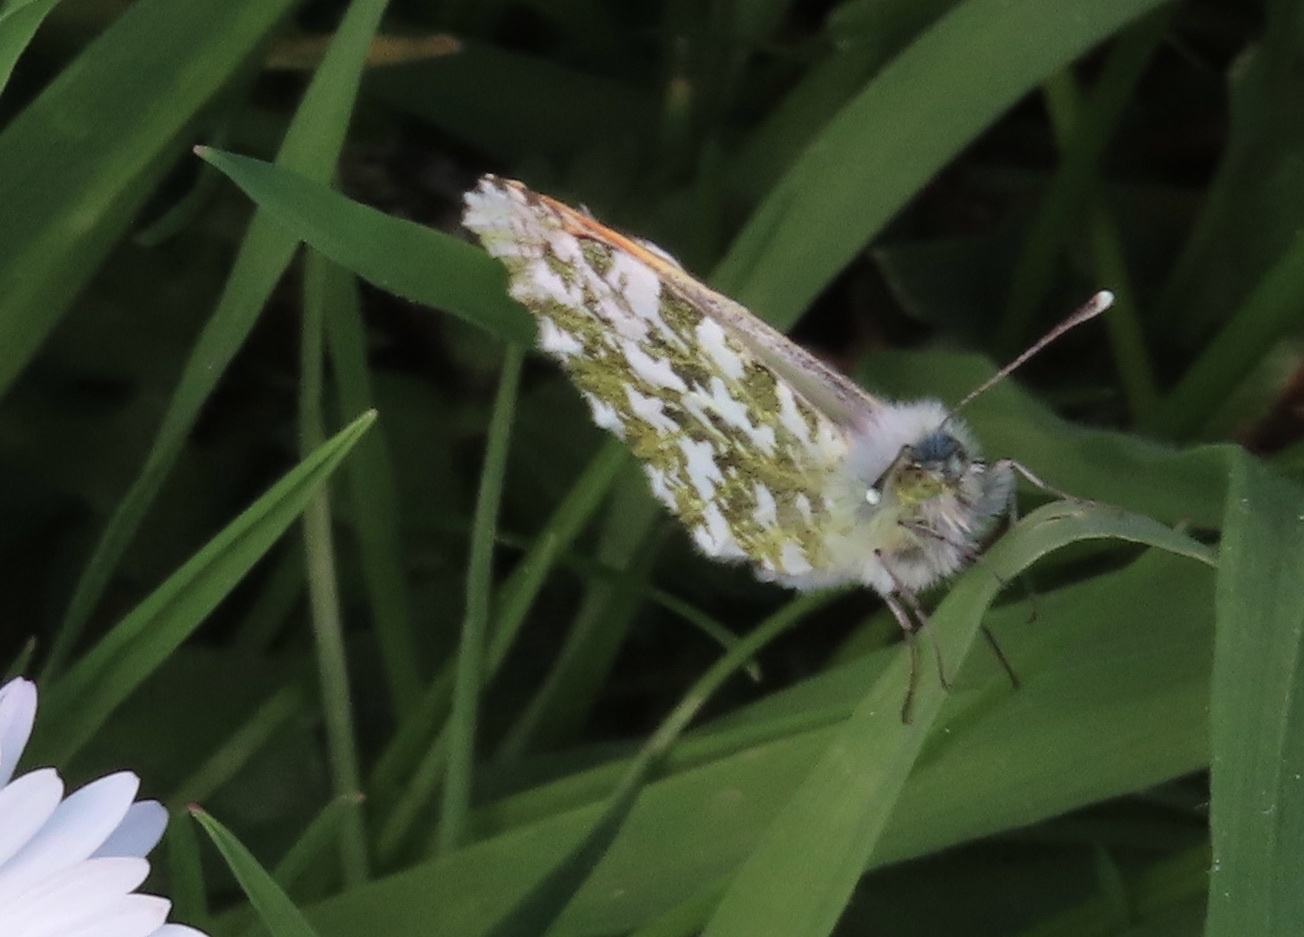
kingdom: Animalia
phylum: Arthropoda
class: Insecta
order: Lepidoptera
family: Pieridae
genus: Anthocharis
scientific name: Anthocharis cardamines
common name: Orange-tip
